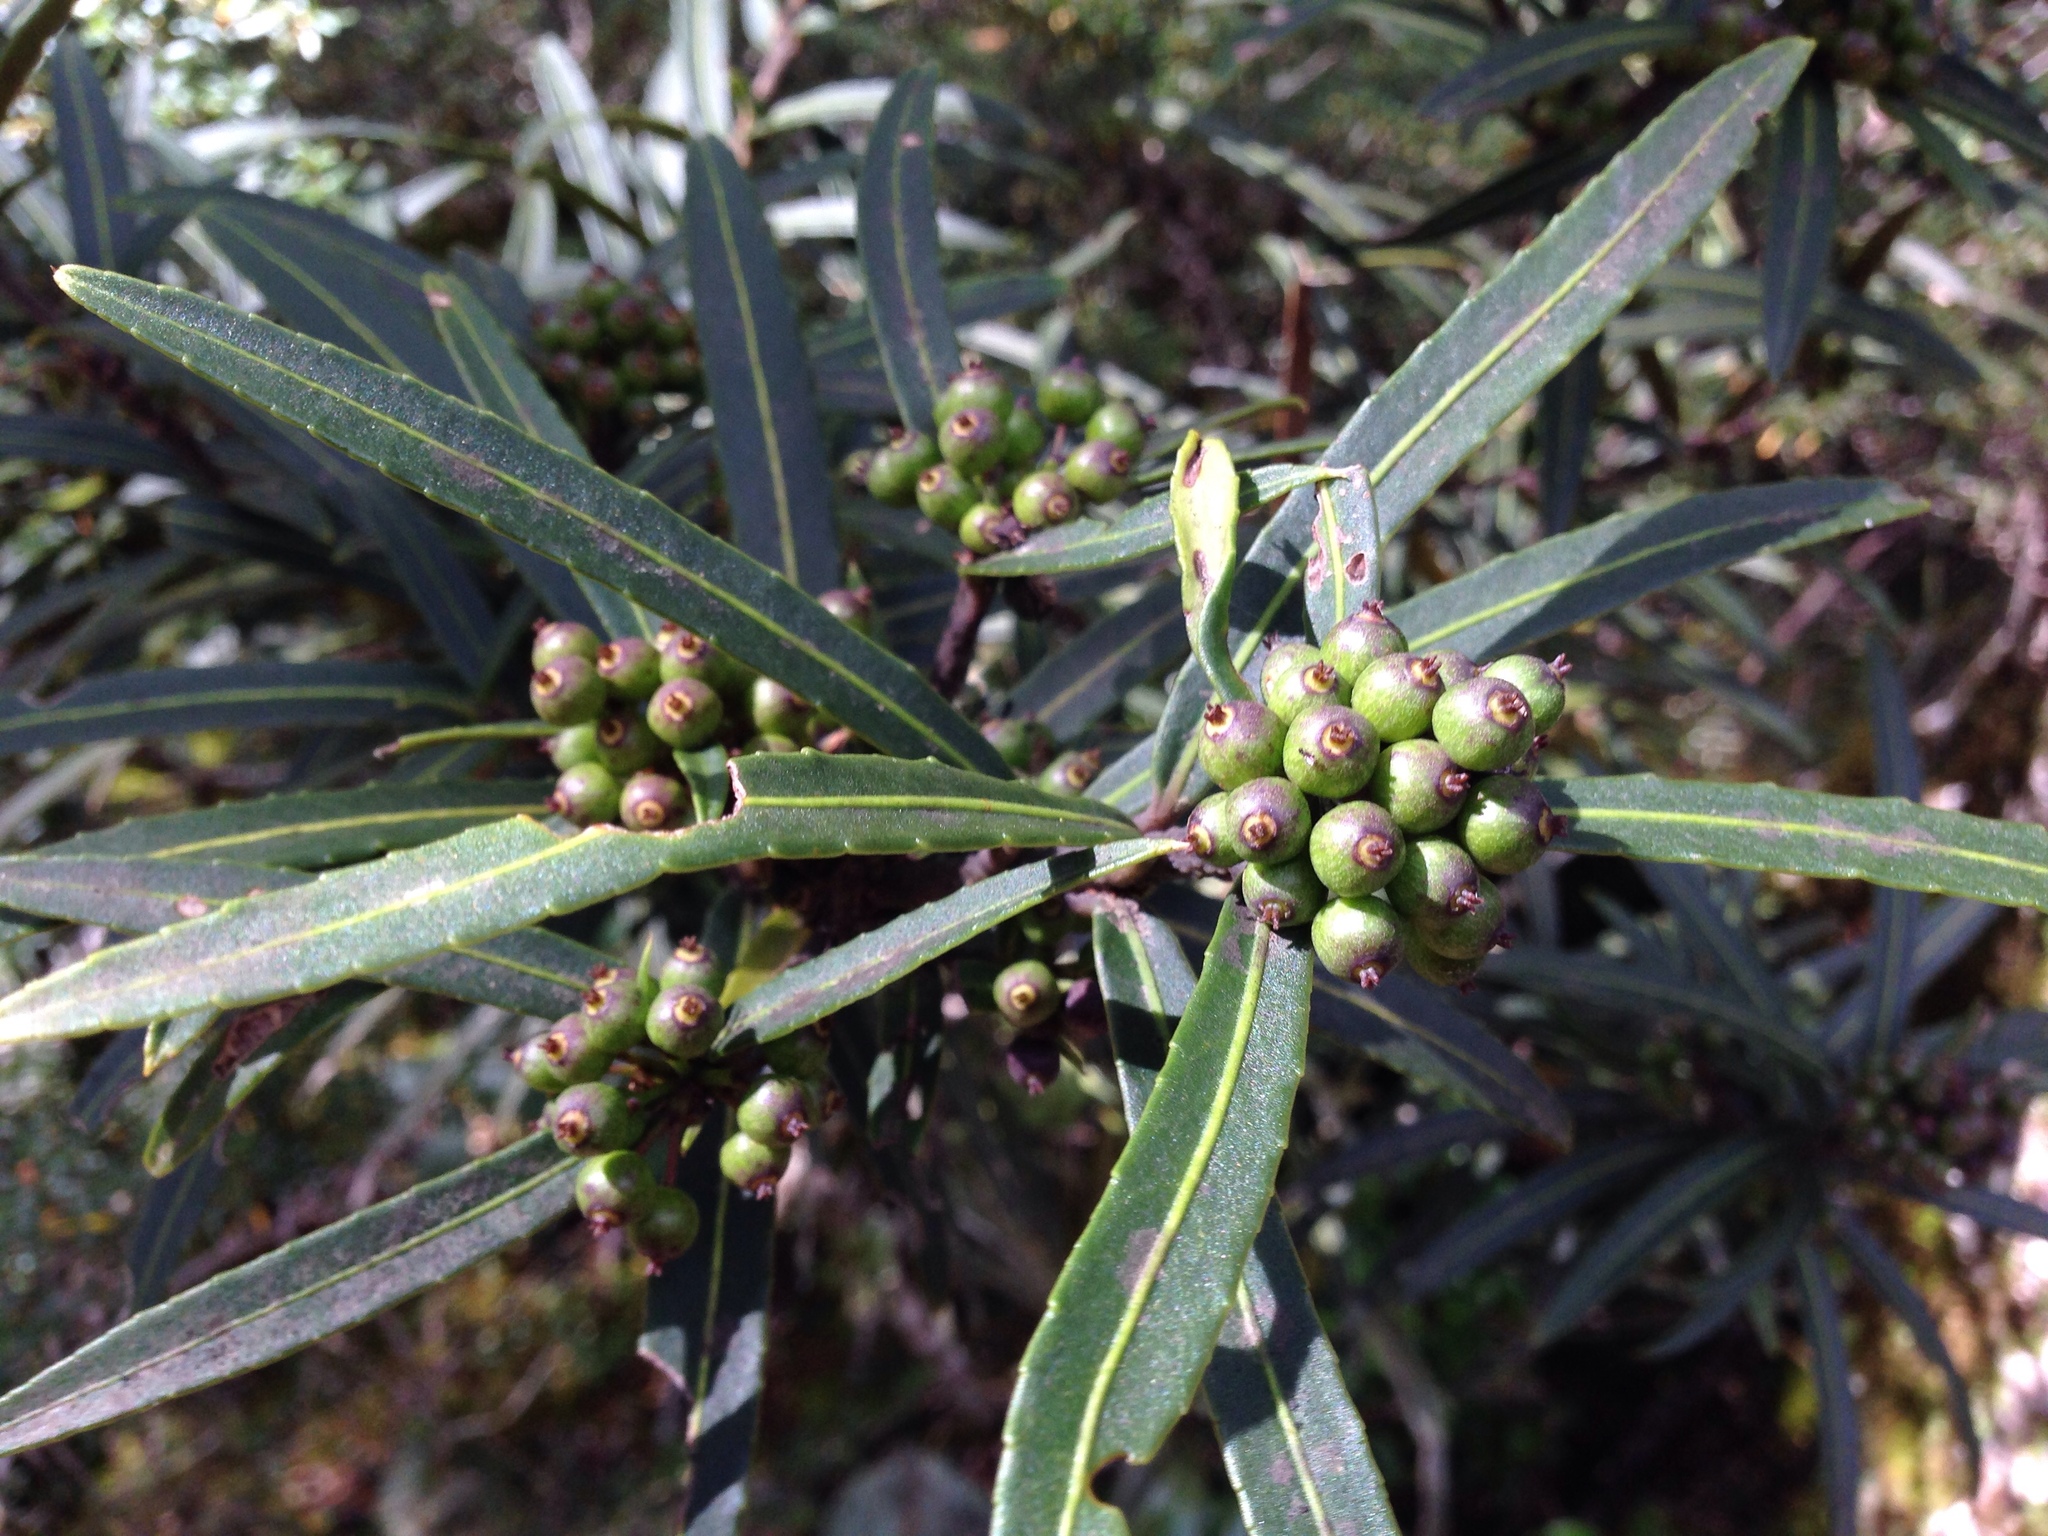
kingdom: Plantae
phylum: Tracheophyta
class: Magnoliopsida
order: Apiales
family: Araliaceae
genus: Pseudopanax
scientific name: Pseudopanax linearis
